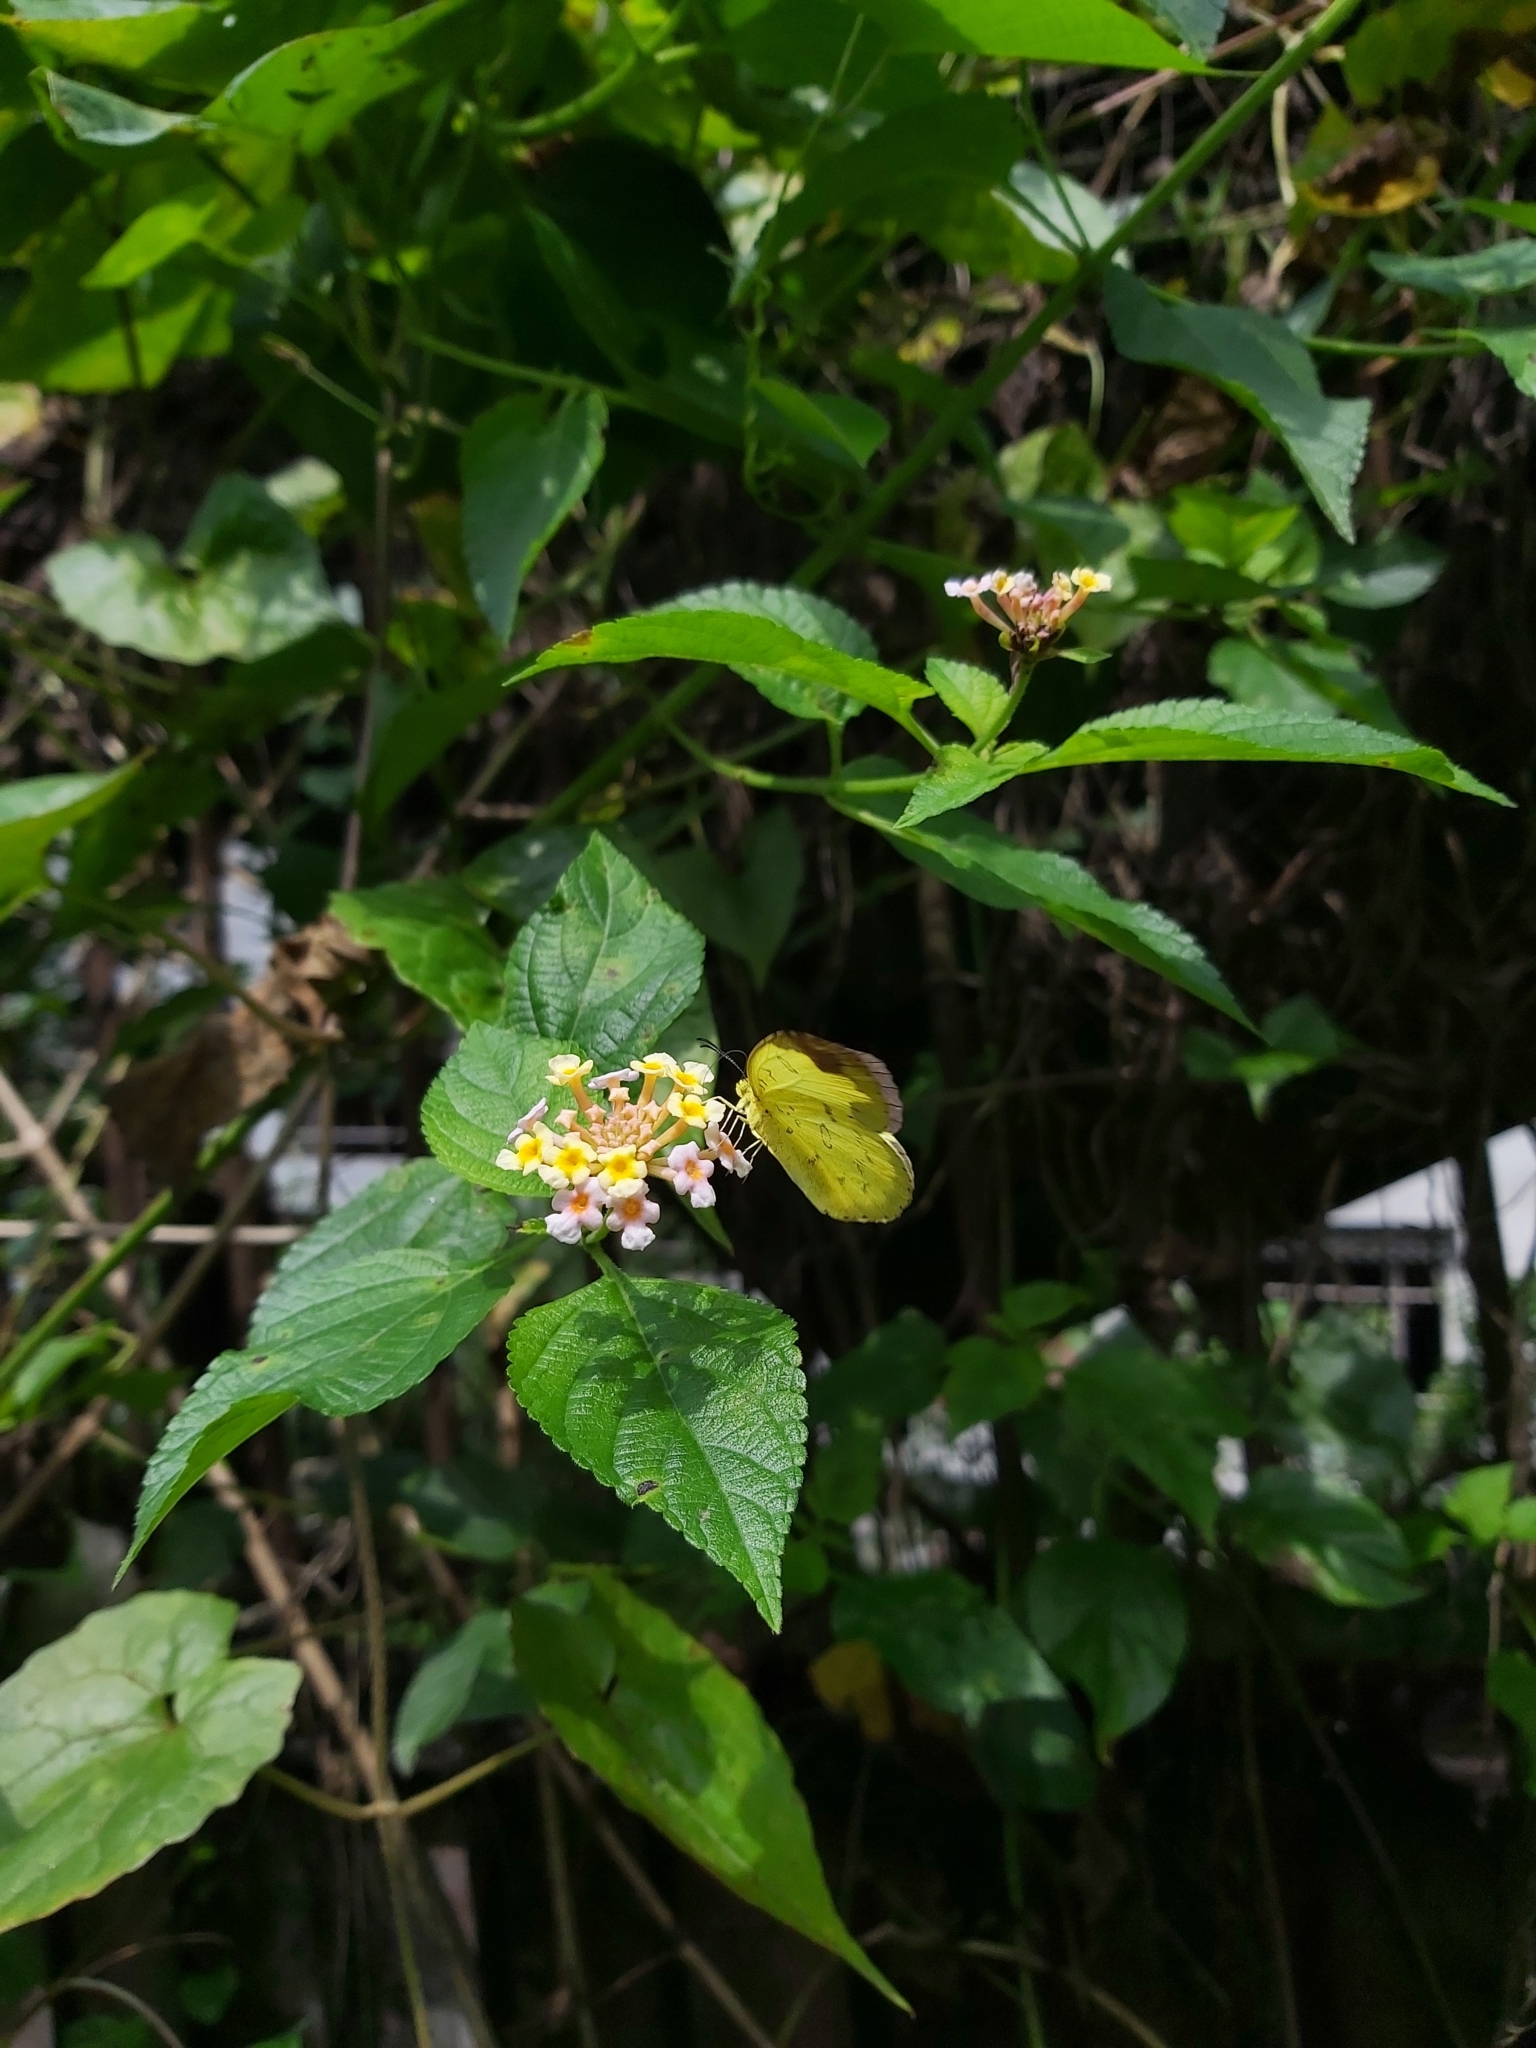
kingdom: Animalia
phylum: Arthropoda
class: Insecta
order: Lepidoptera
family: Pieridae
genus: Eurema
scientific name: Eurema blanda
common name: Three-spot grass yellow
